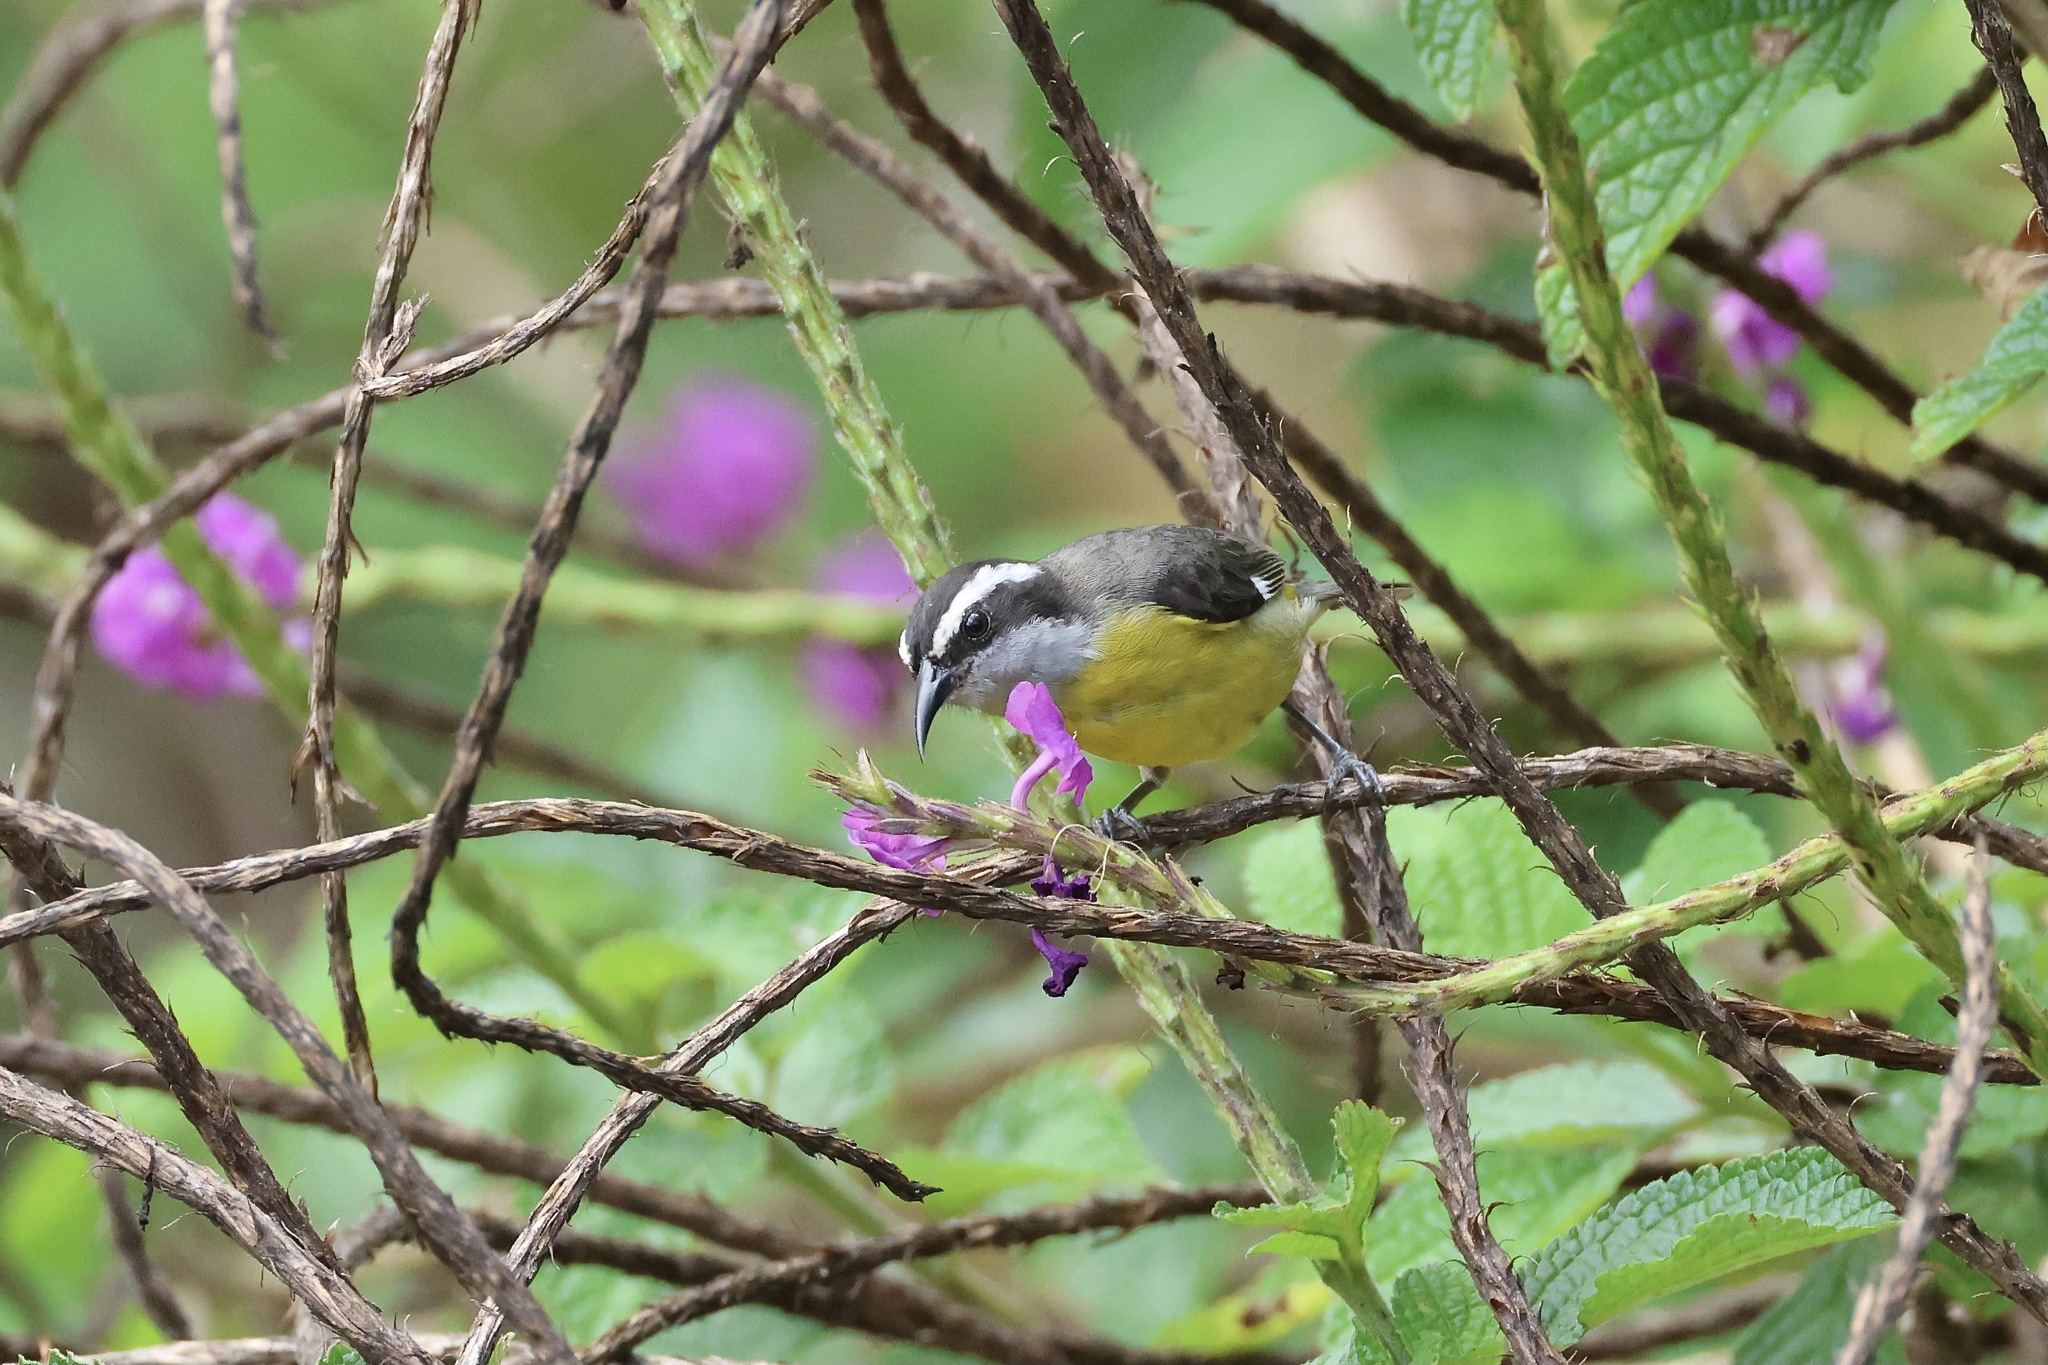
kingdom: Animalia
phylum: Chordata
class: Aves
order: Passeriformes
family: Thraupidae
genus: Coereba
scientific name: Coereba flaveola
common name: Bananaquit
